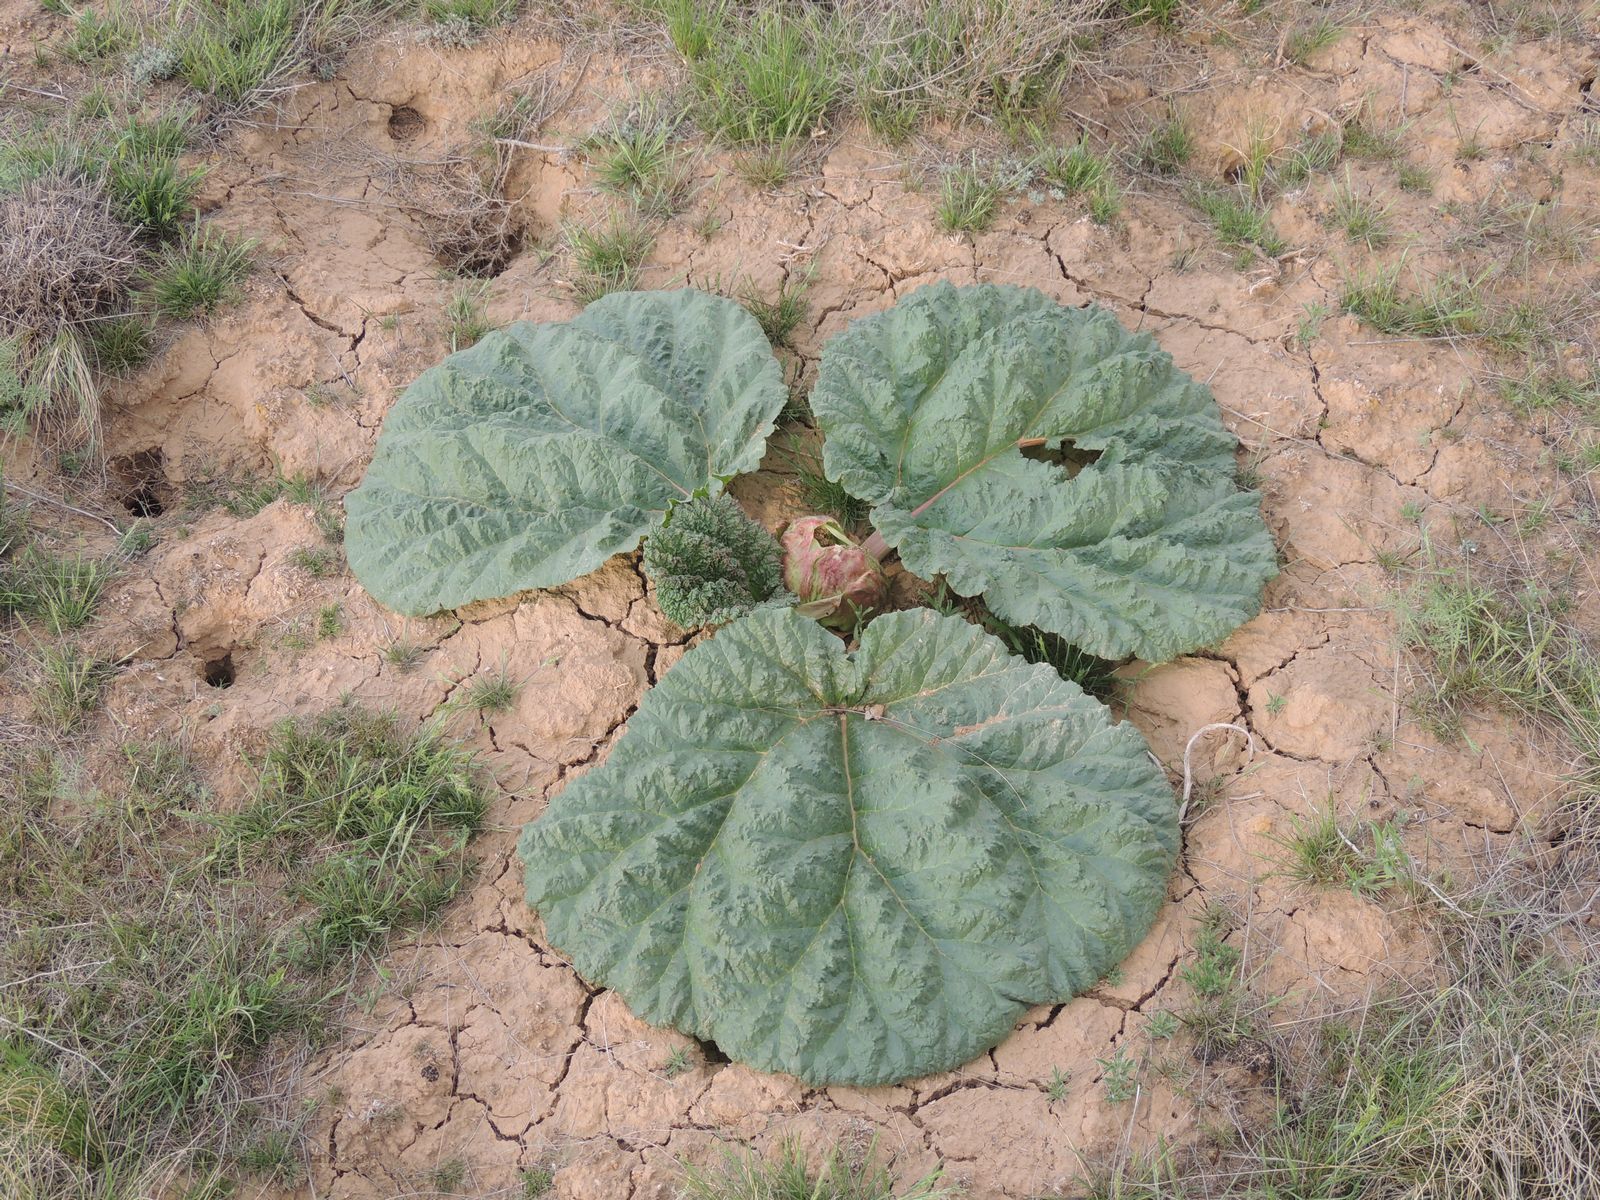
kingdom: Plantae
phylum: Tracheophyta
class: Magnoliopsida
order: Caryophyllales
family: Polygonaceae
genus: Rheum
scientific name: Rheum tataricum
